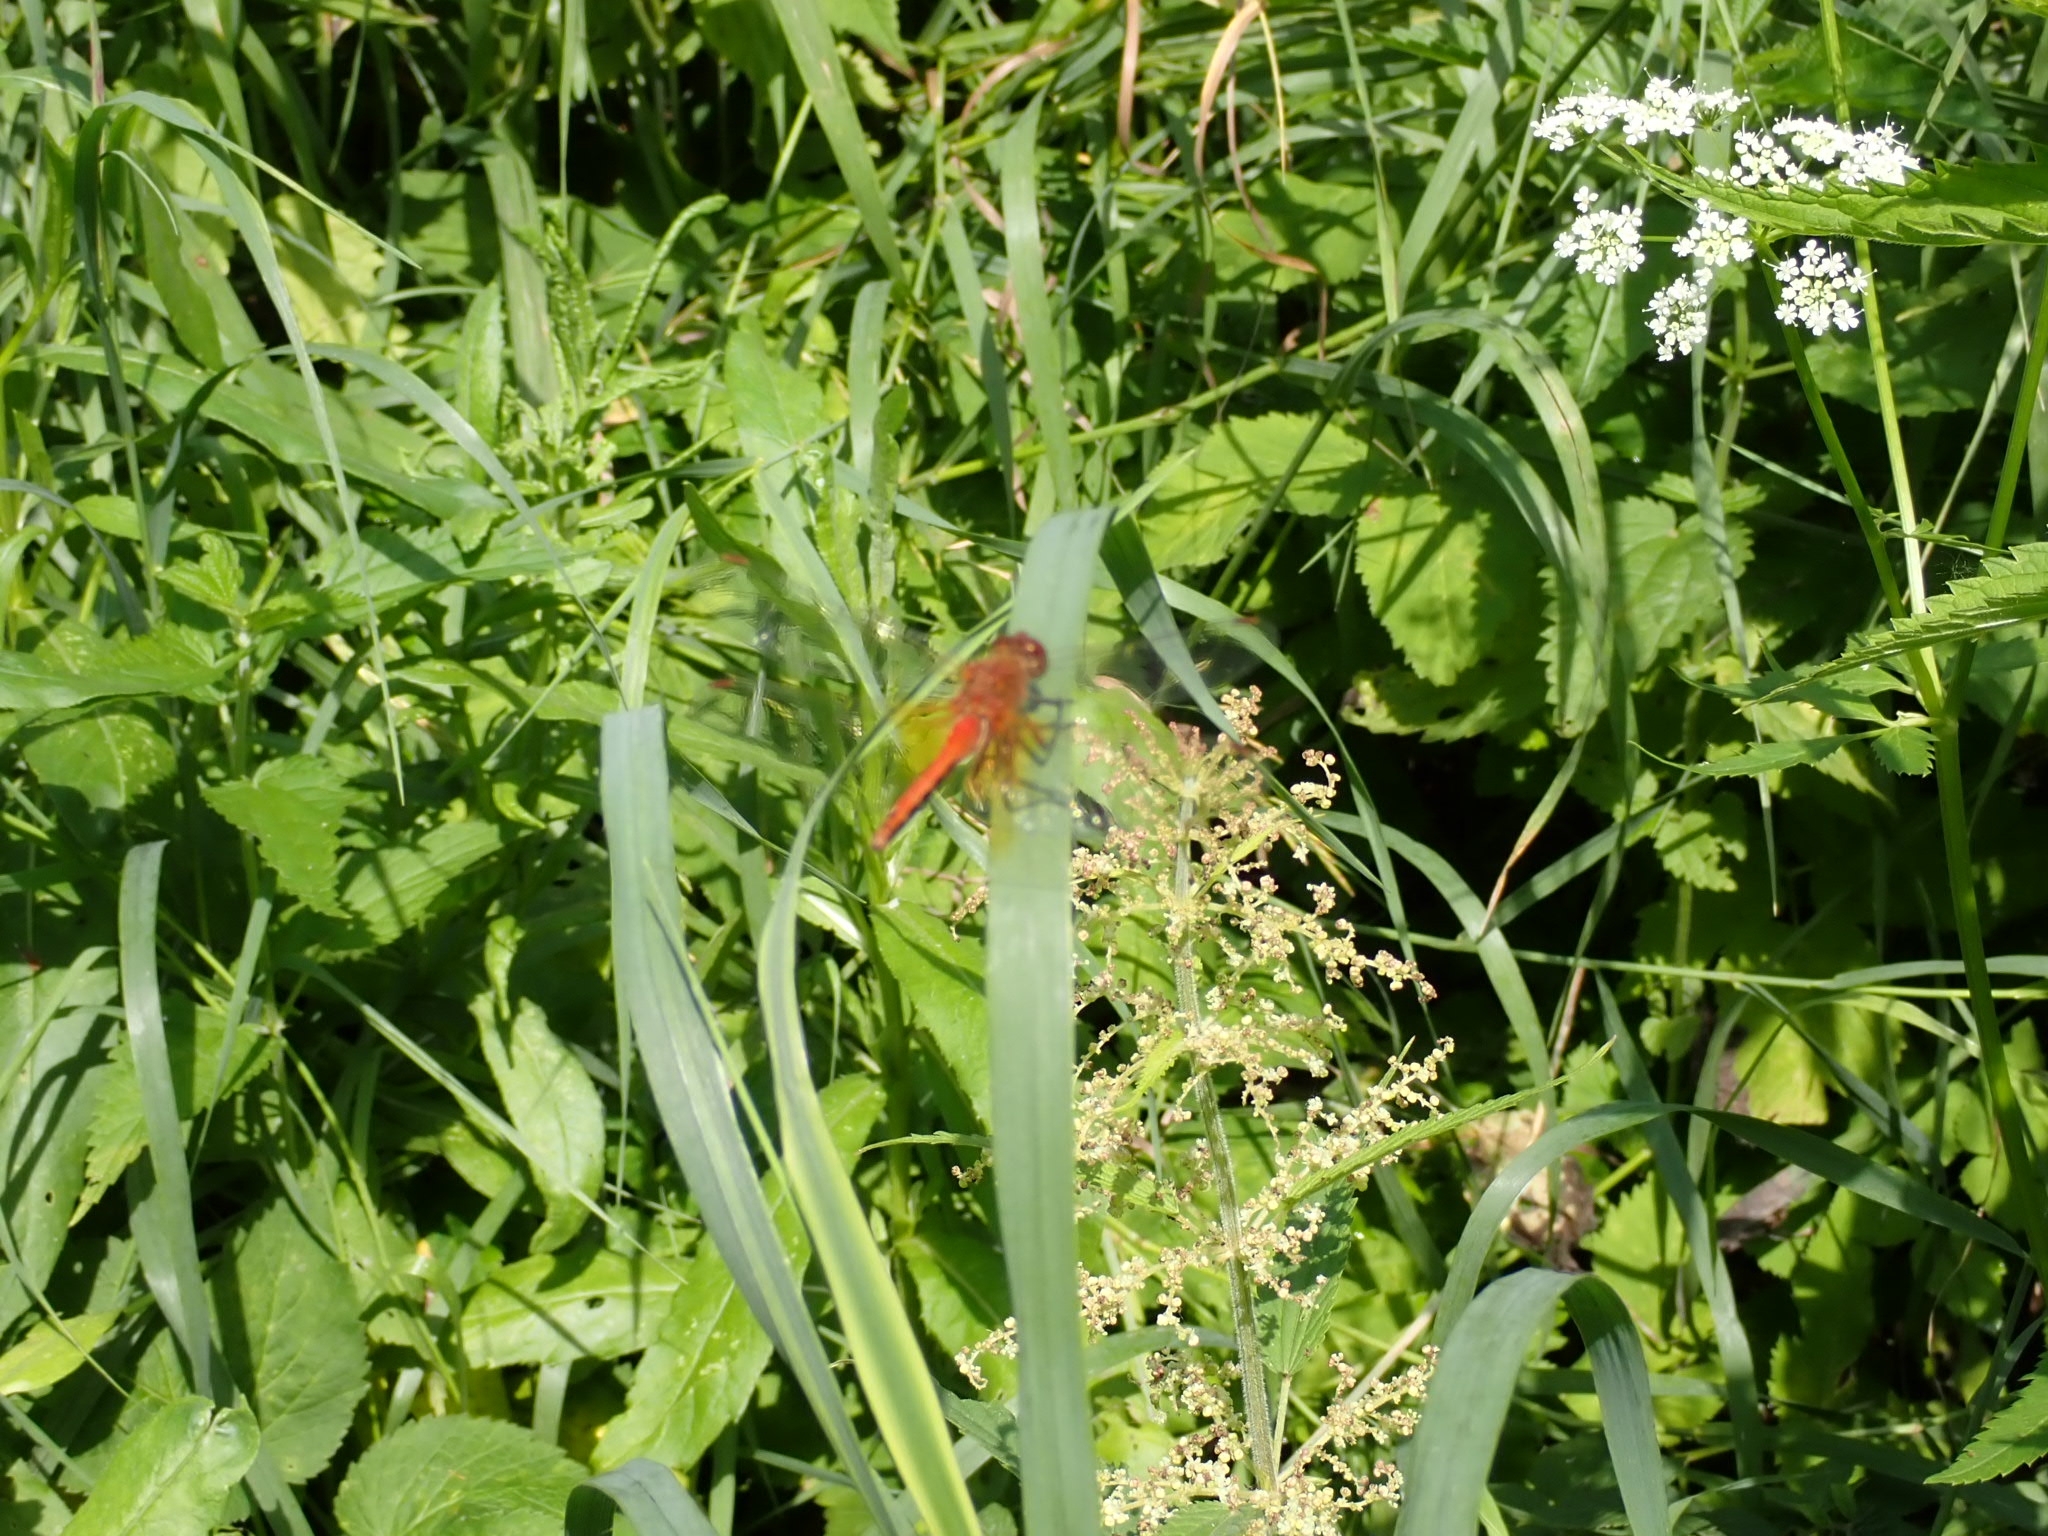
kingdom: Animalia
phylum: Arthropoda
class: Insecta
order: Odonata
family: Libellulidae
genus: Sympetrum
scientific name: Sympetrum flaveolum
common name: Yellow-winged darter
